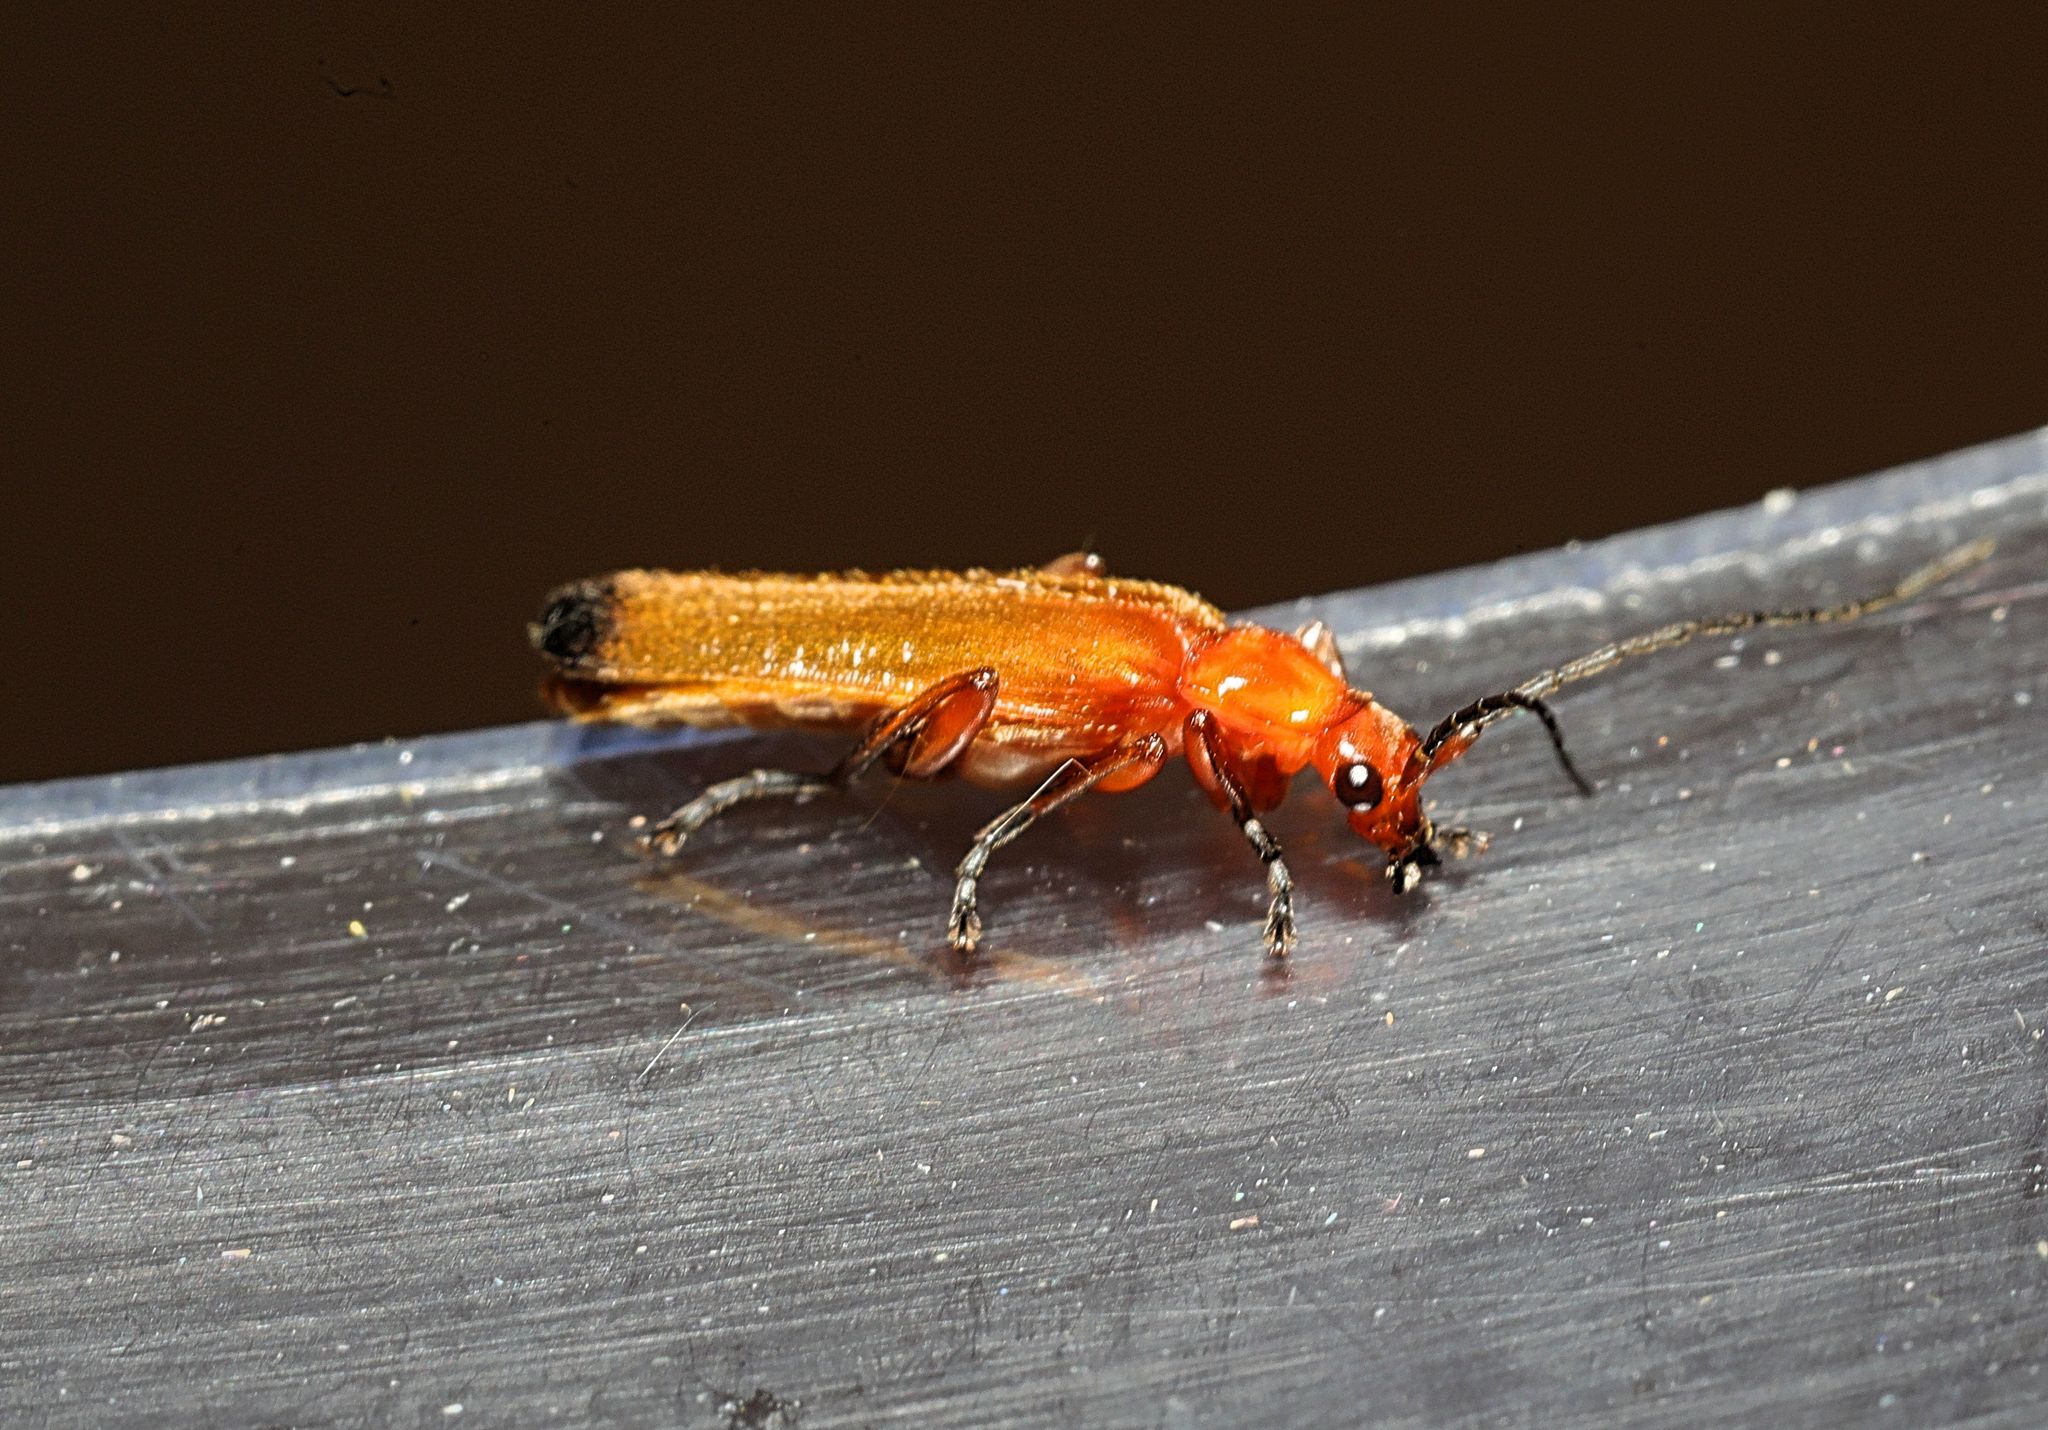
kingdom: Animalia
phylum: Arthropoda
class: Insecta
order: Coleoptera
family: Cantharidae
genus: Rhagonycha
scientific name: Rhagonycha fulva
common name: Common red soldier beetle
